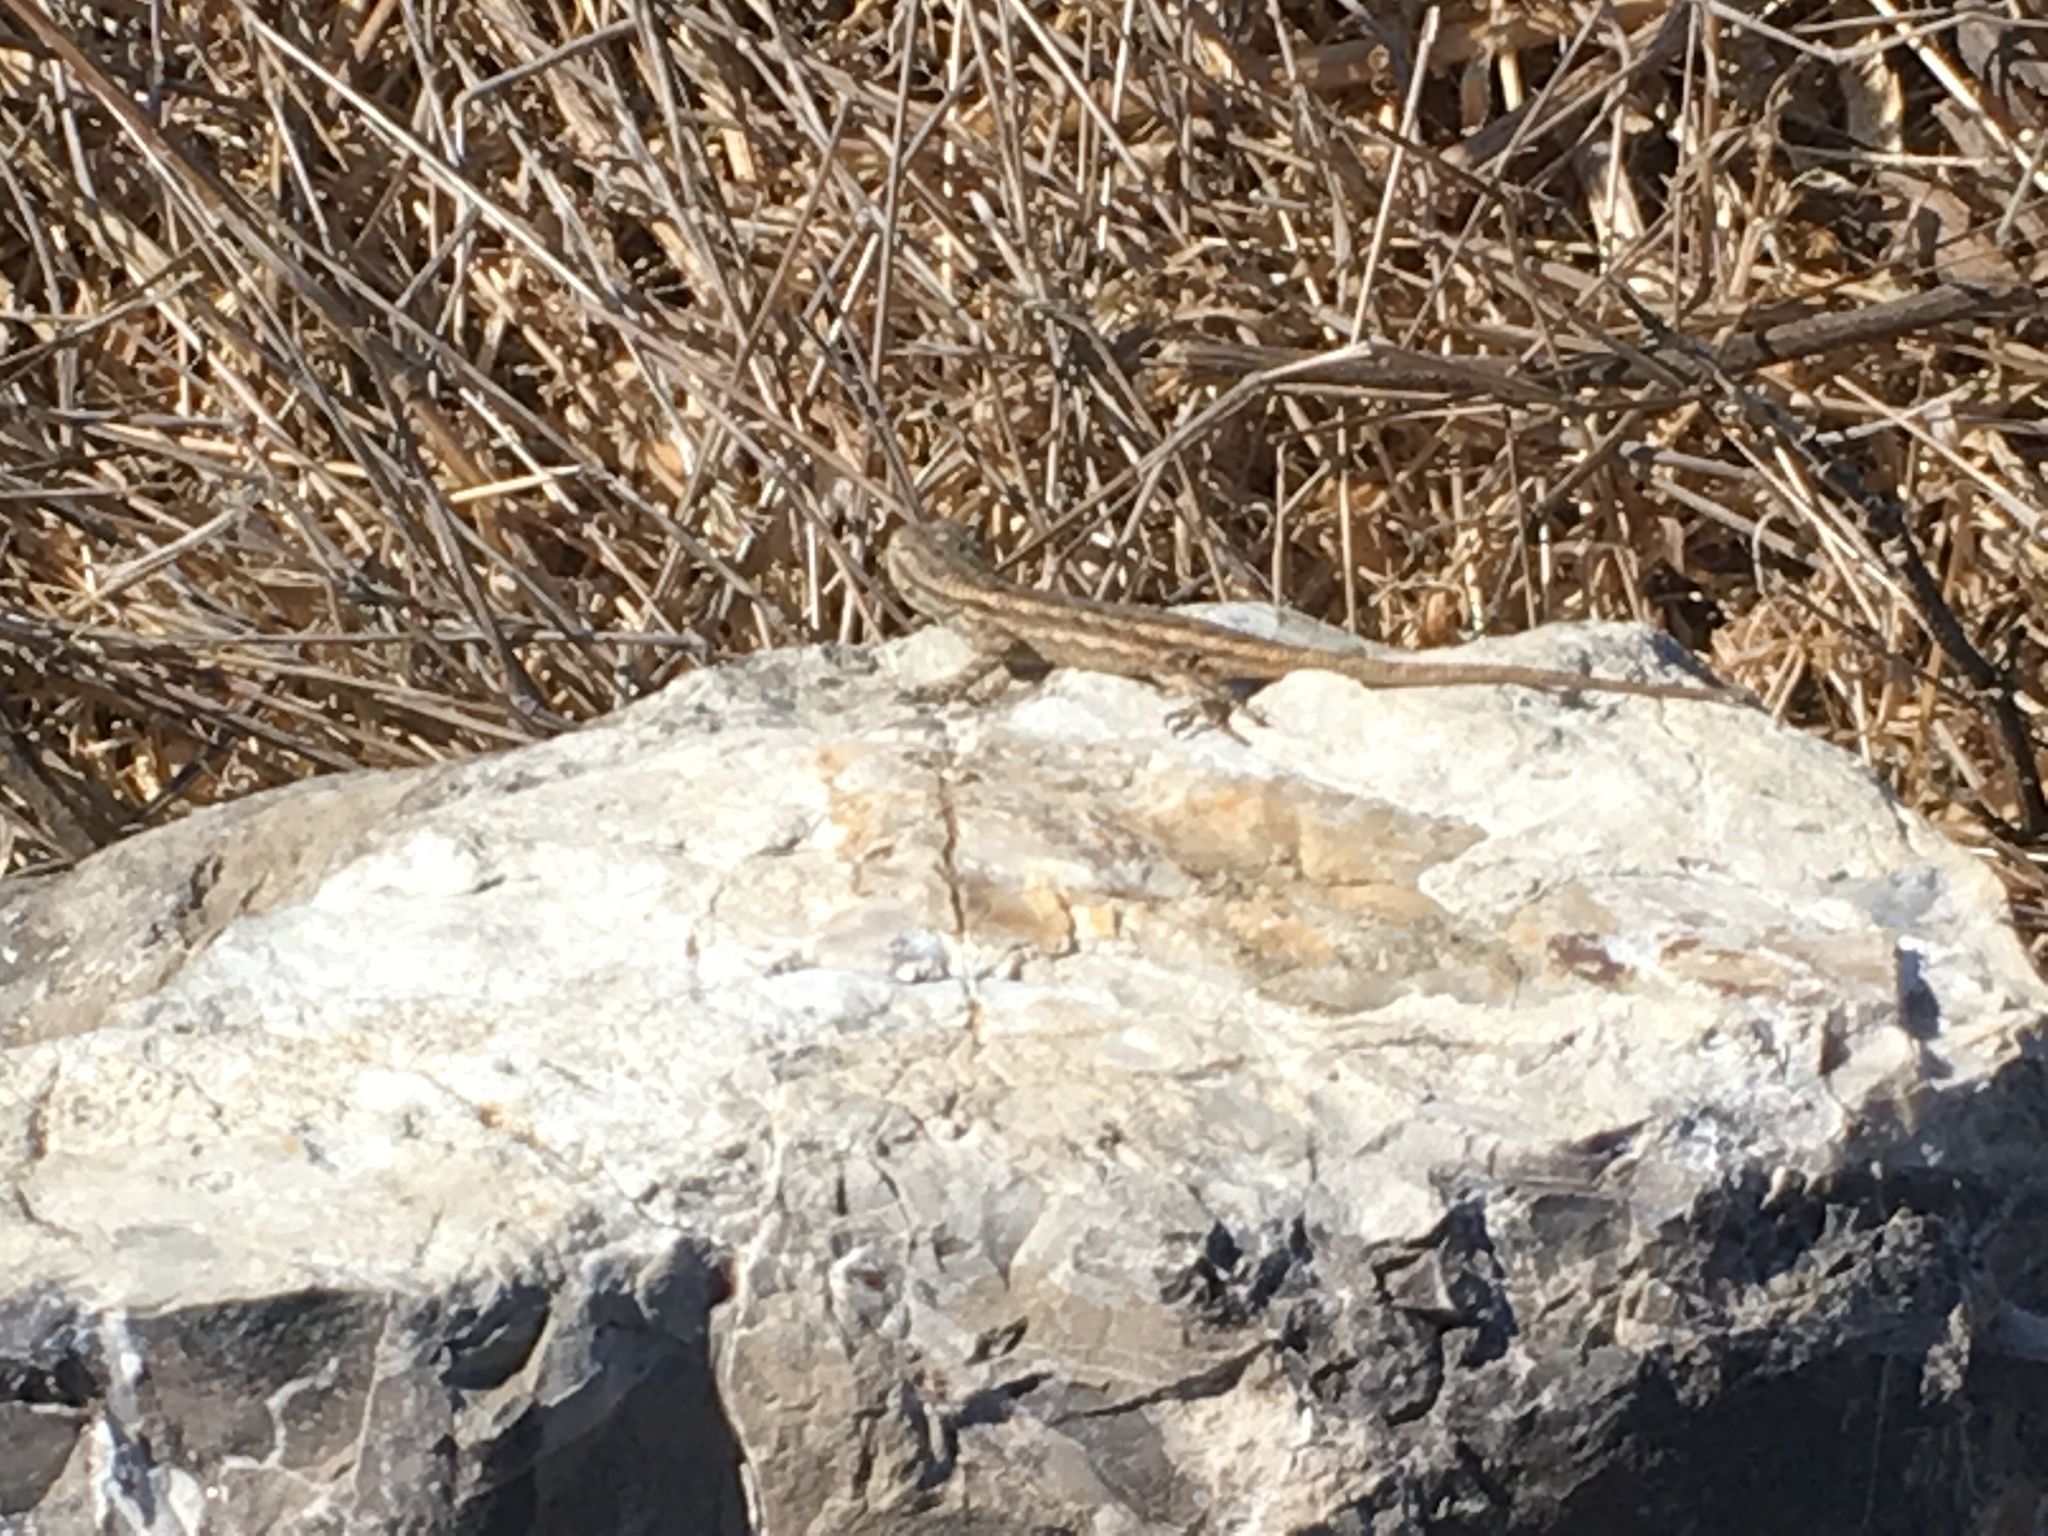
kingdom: Animalia
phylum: Chordata
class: Squamata
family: Phrynosomatidae
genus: Sceloporus
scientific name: Sceloporus occidentalis
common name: Western fence lizard
